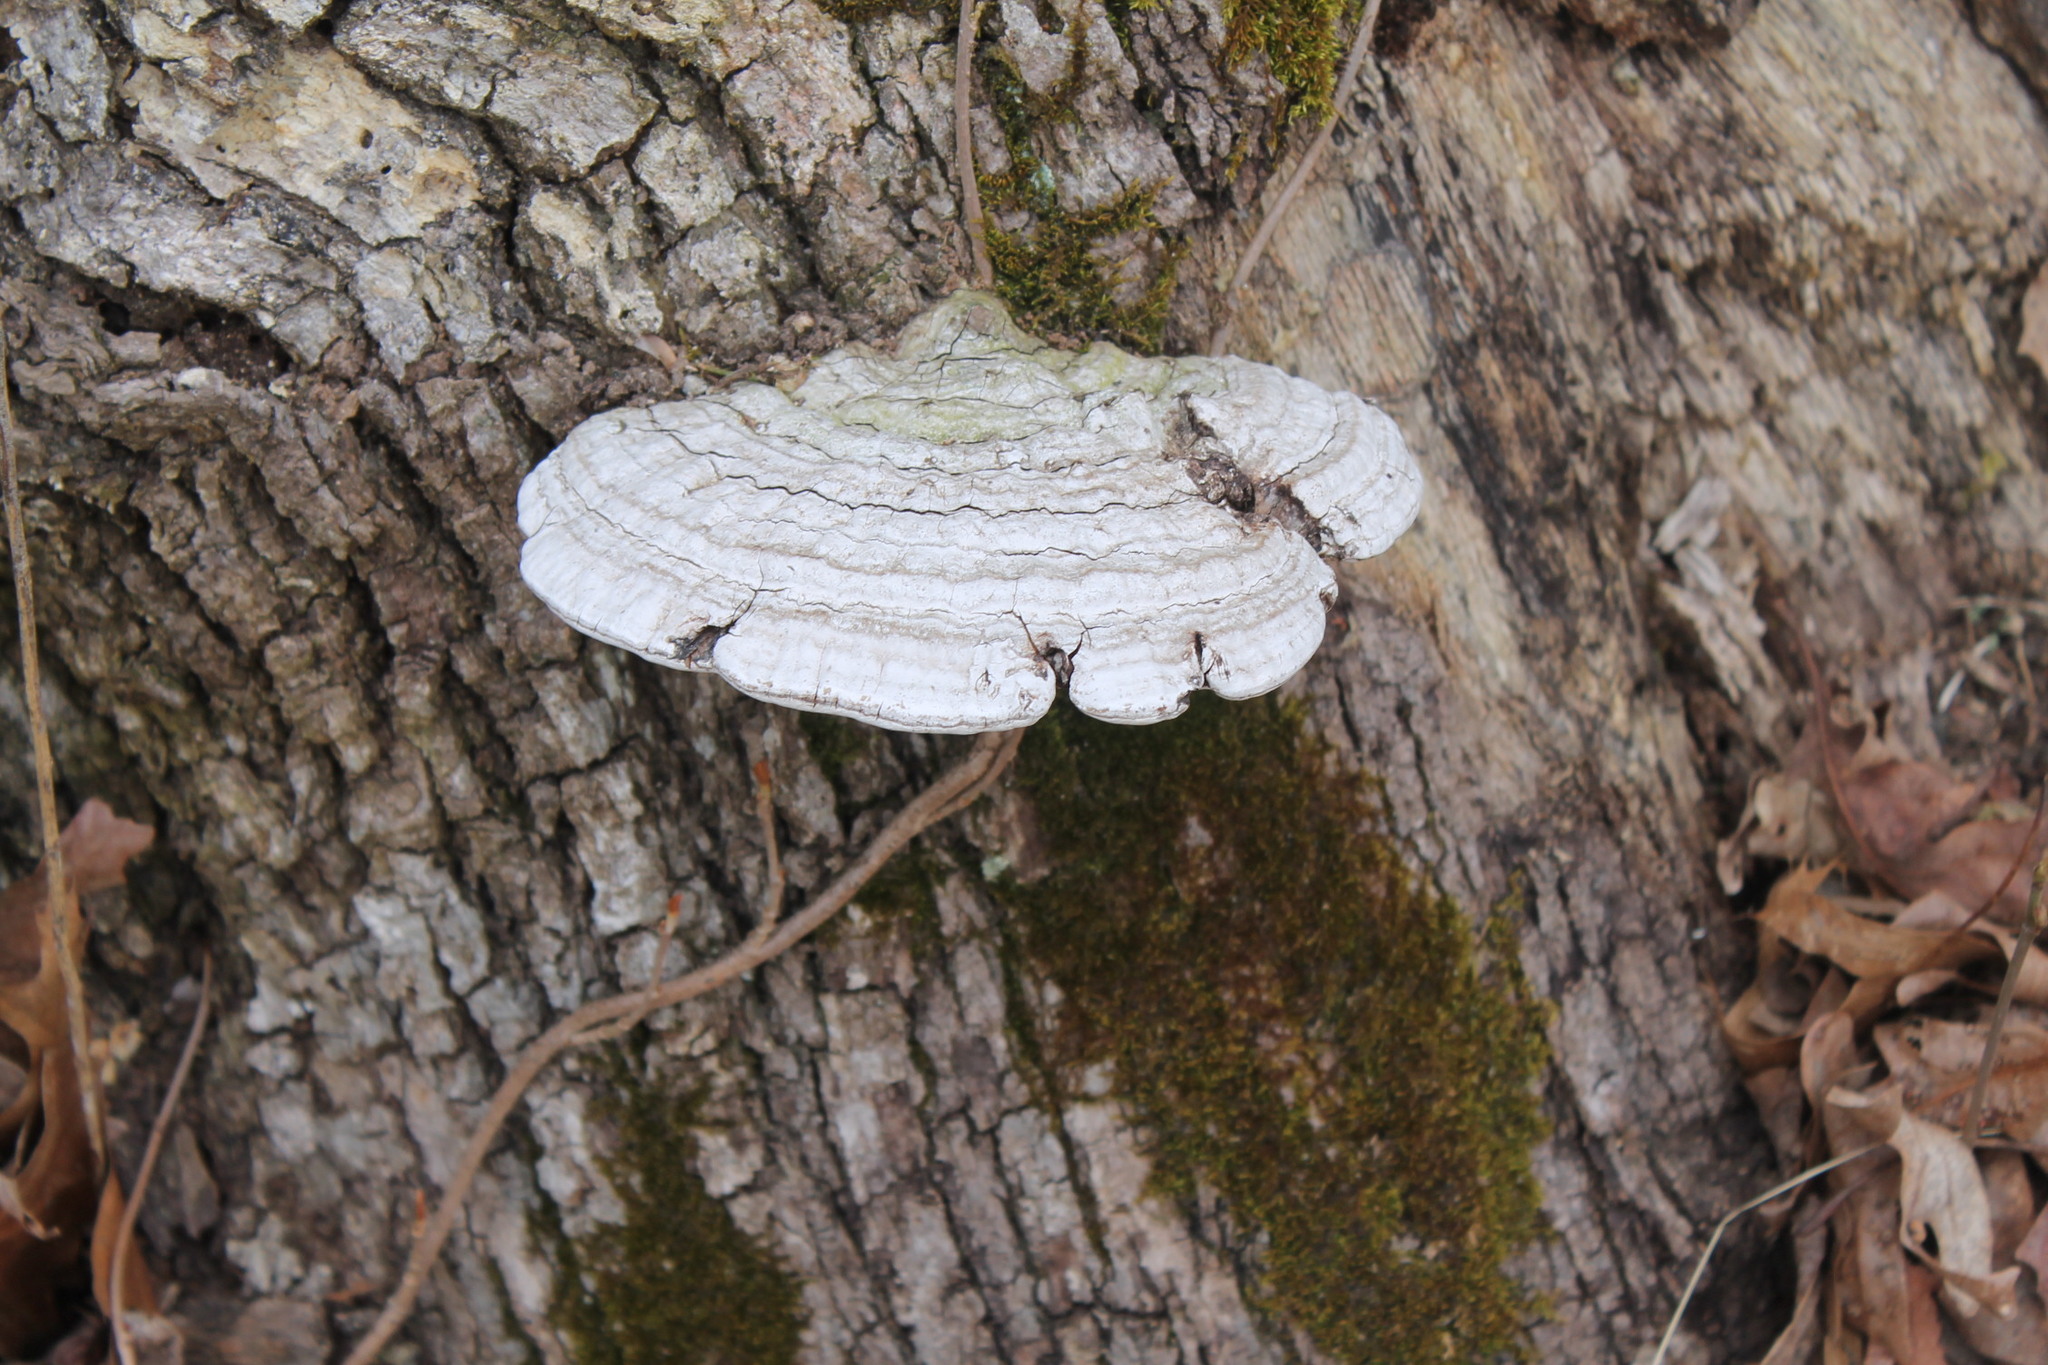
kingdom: Fungi
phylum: Basidiomycota
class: Agaricomycetes
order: Polyporales
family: Polyporaceae
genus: Ganoderma
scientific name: Ganoderma applanatum
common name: Artist's bracket
